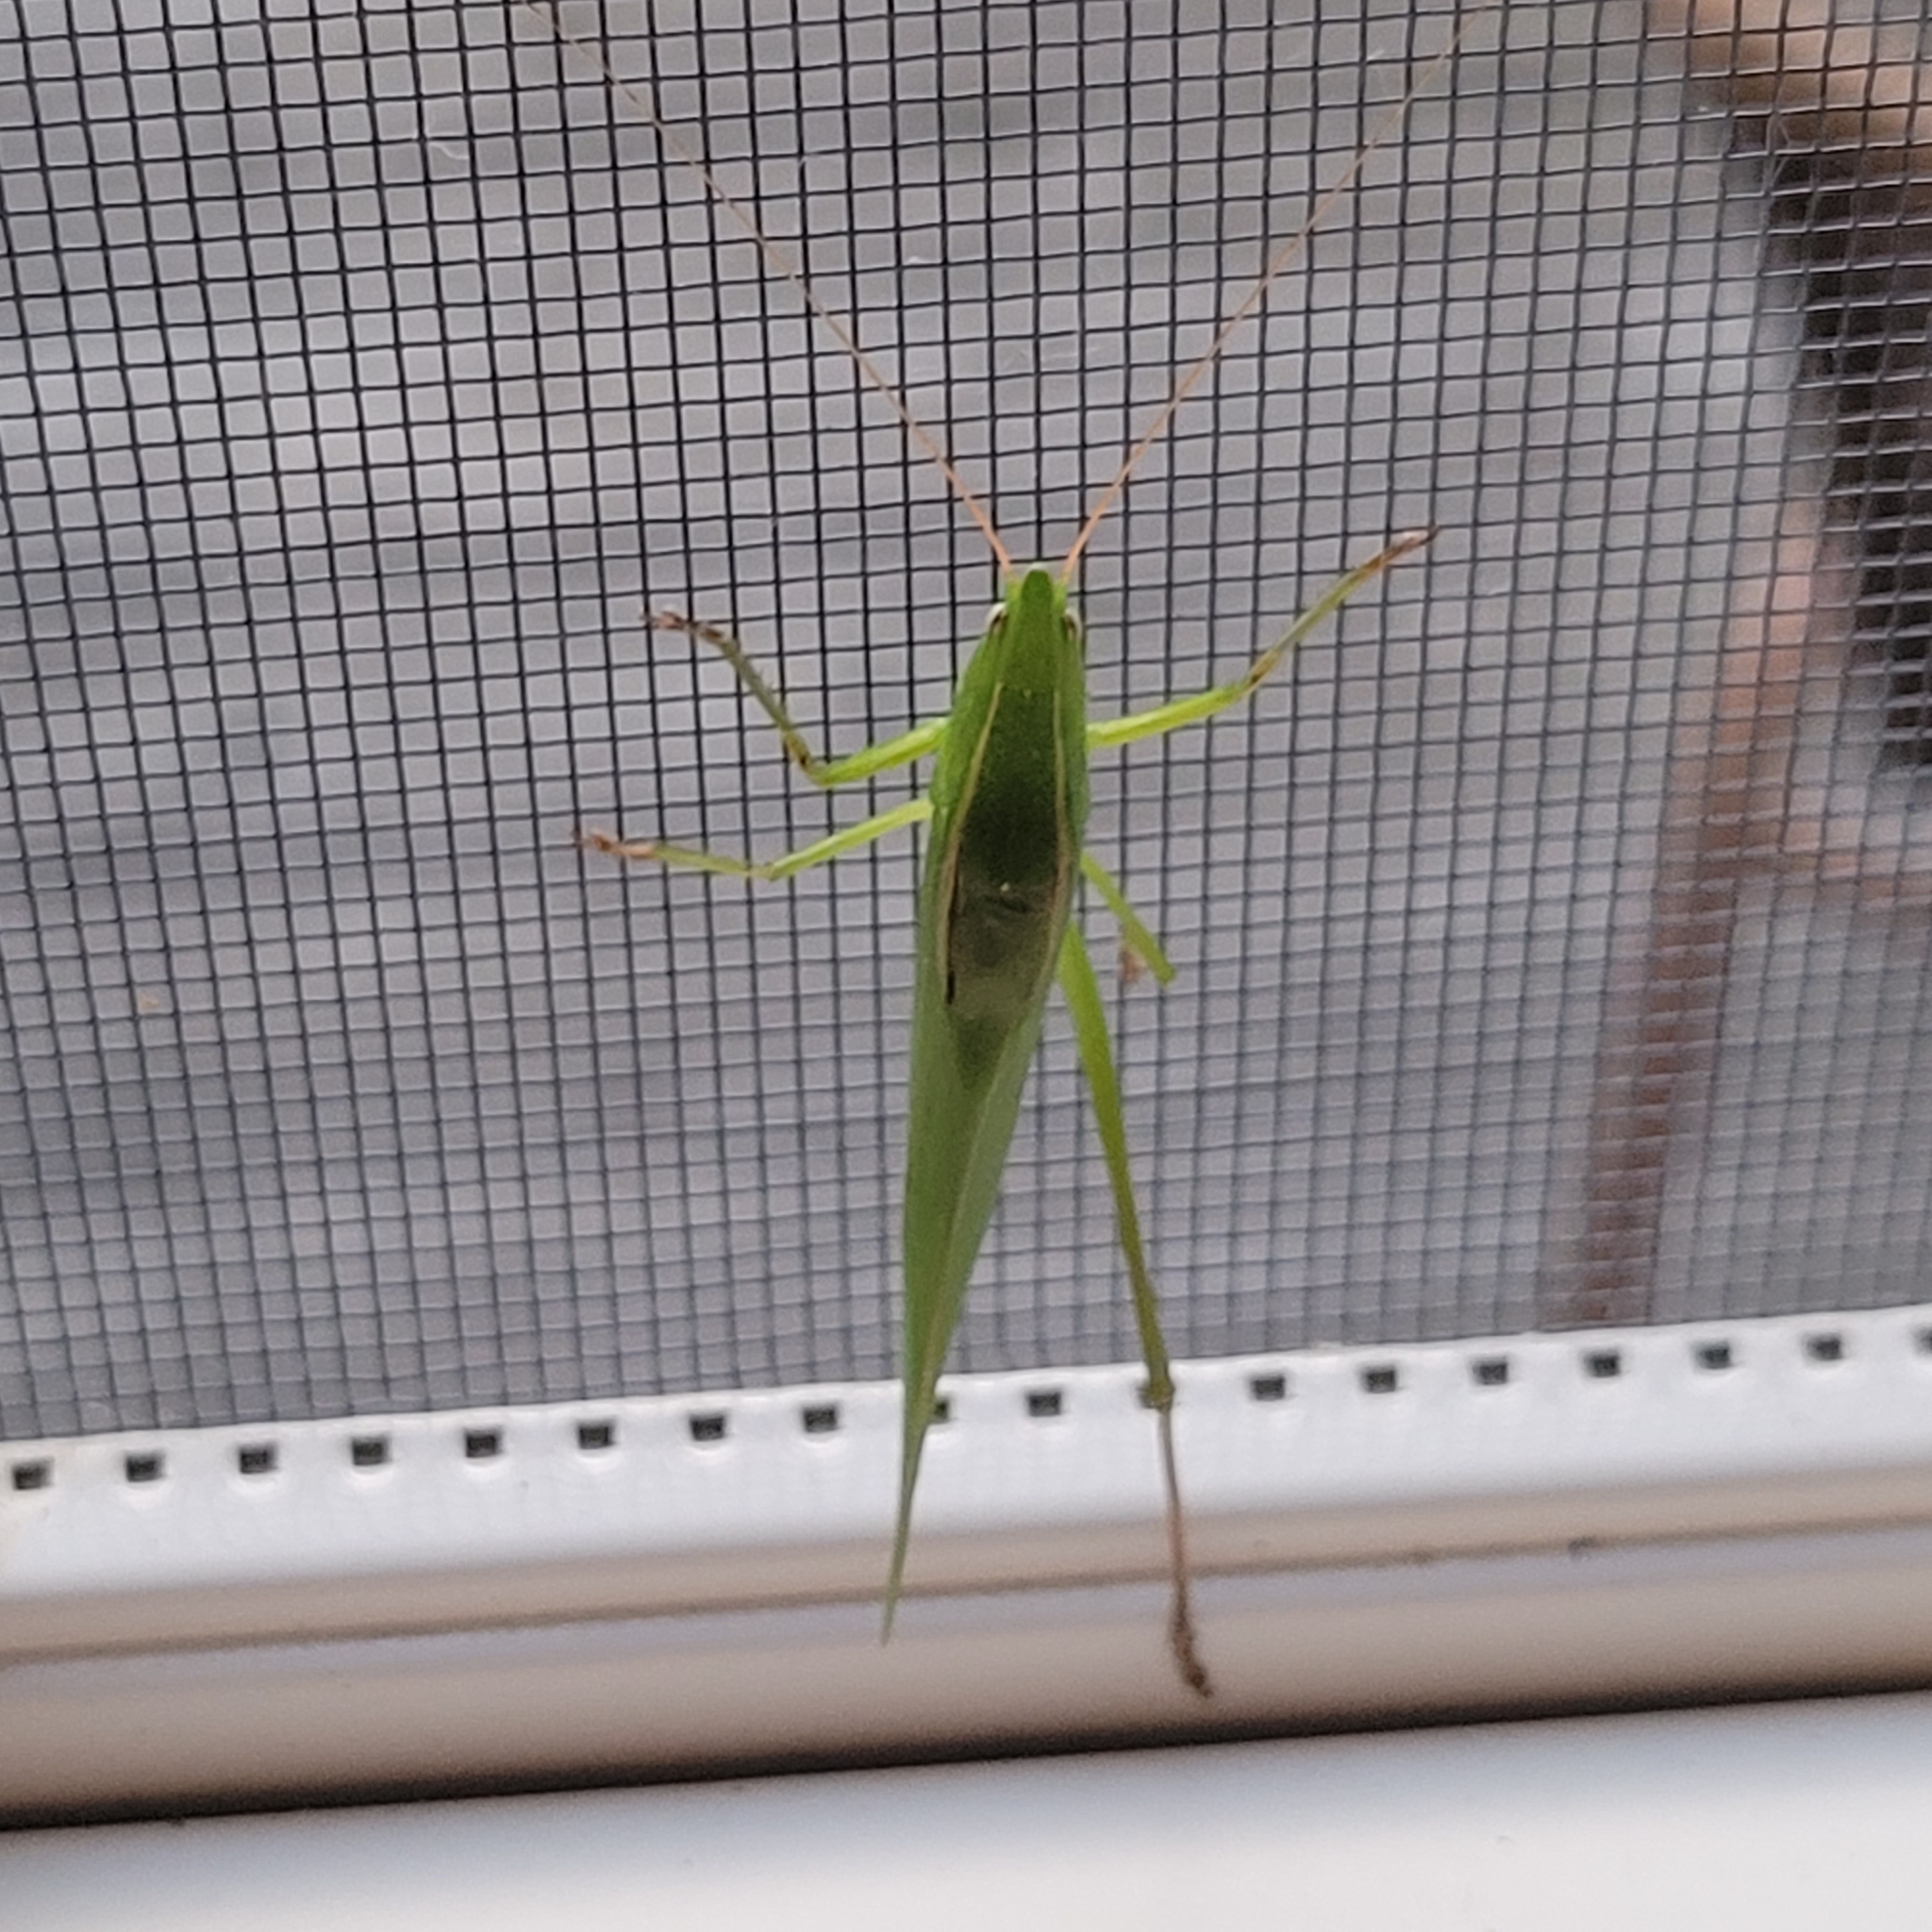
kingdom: Animalia
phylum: Arthropoda
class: Insecta
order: Orthoptera
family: Tettigoniidae
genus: Neoconocephalus
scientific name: Neoconocephalus retusus
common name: Round-tipped conehead
